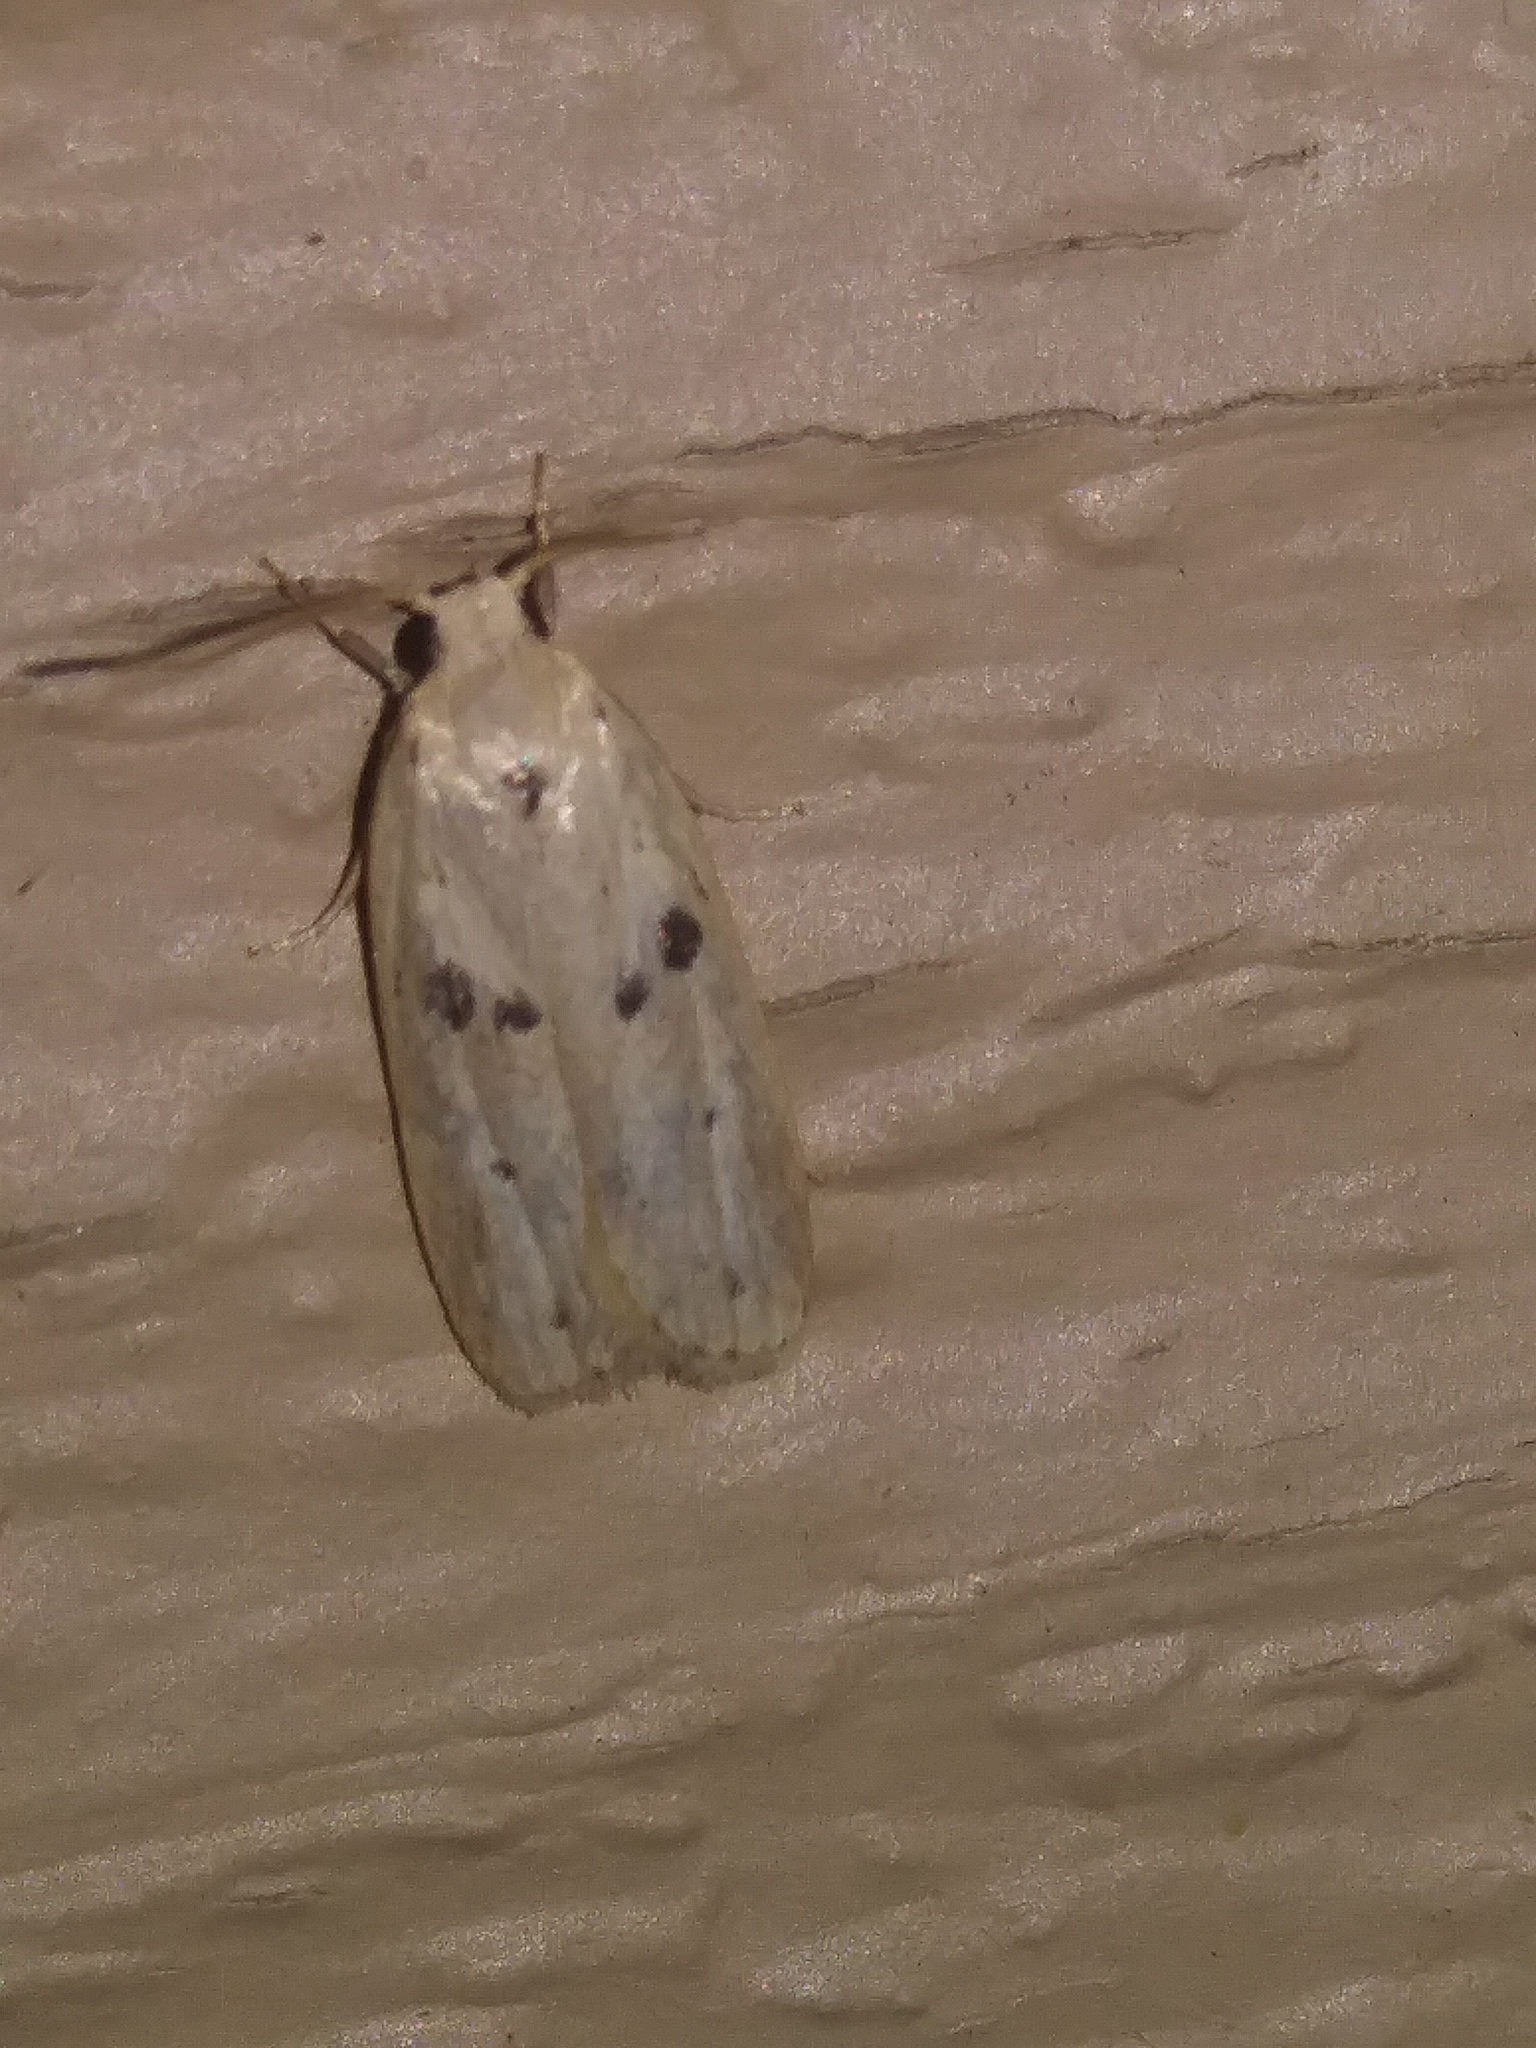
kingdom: Animalia
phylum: Arthropoda
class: Insecta
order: Lepidoptera
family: Peleopodidae
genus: Scythropiodes
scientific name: Scythropiodes issikii
